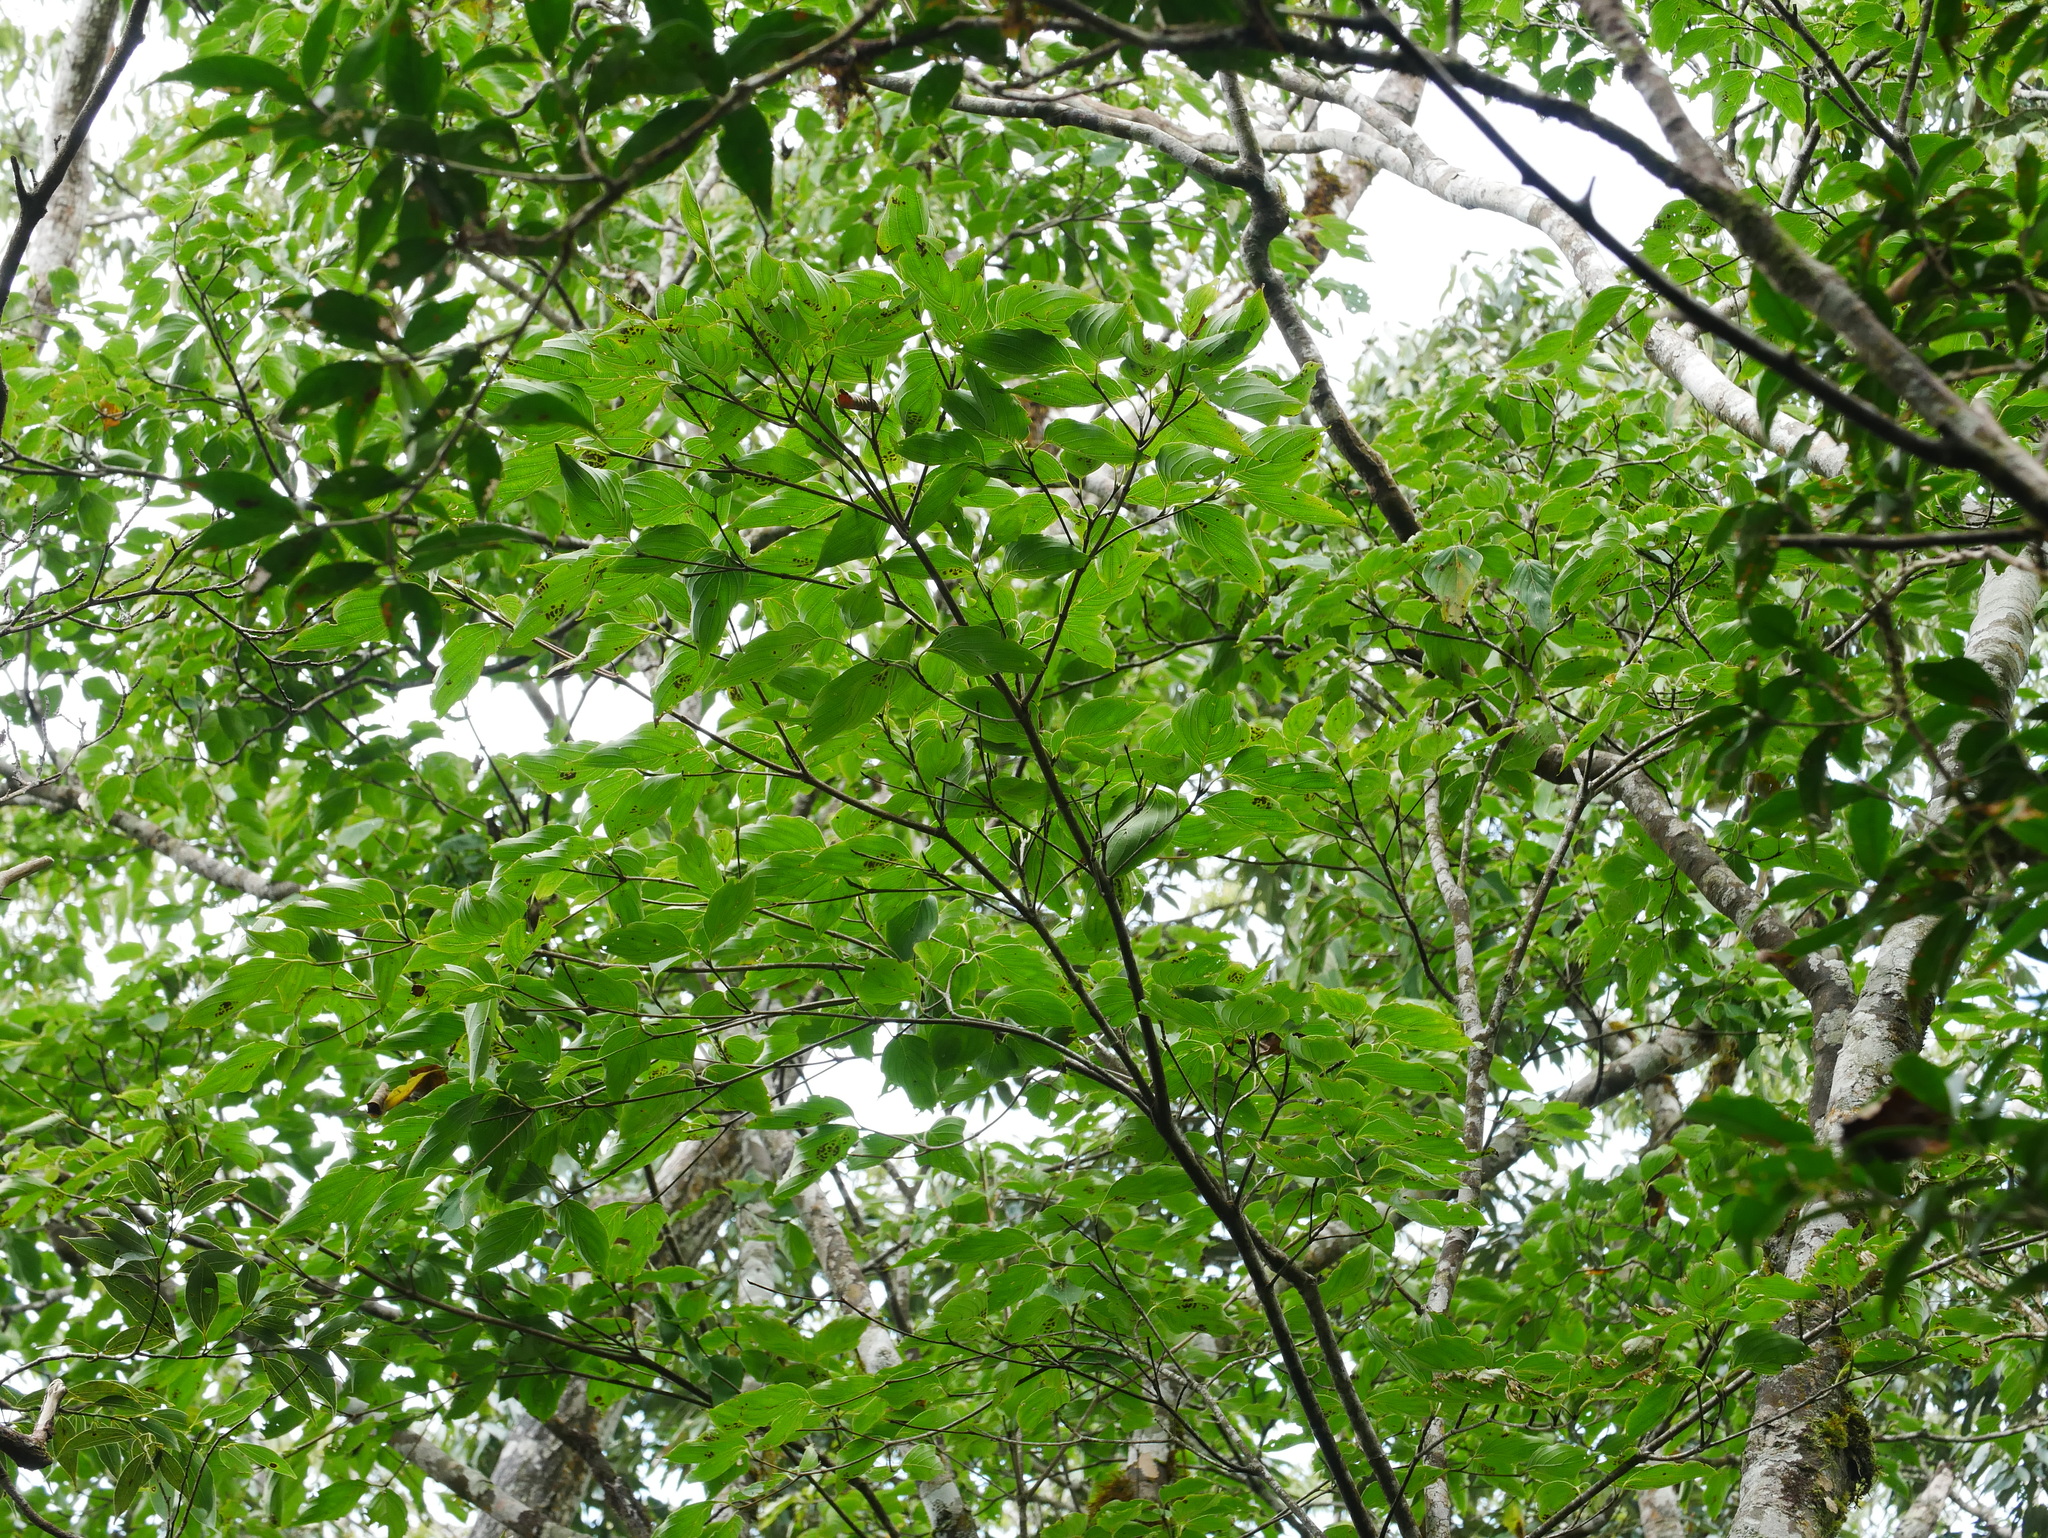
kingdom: Plantae
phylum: Tracheophyta
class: Magnoliopsida
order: Cornales
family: Cornaceae
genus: Cornus
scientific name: Cornus kousa
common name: Japanese dogwood
